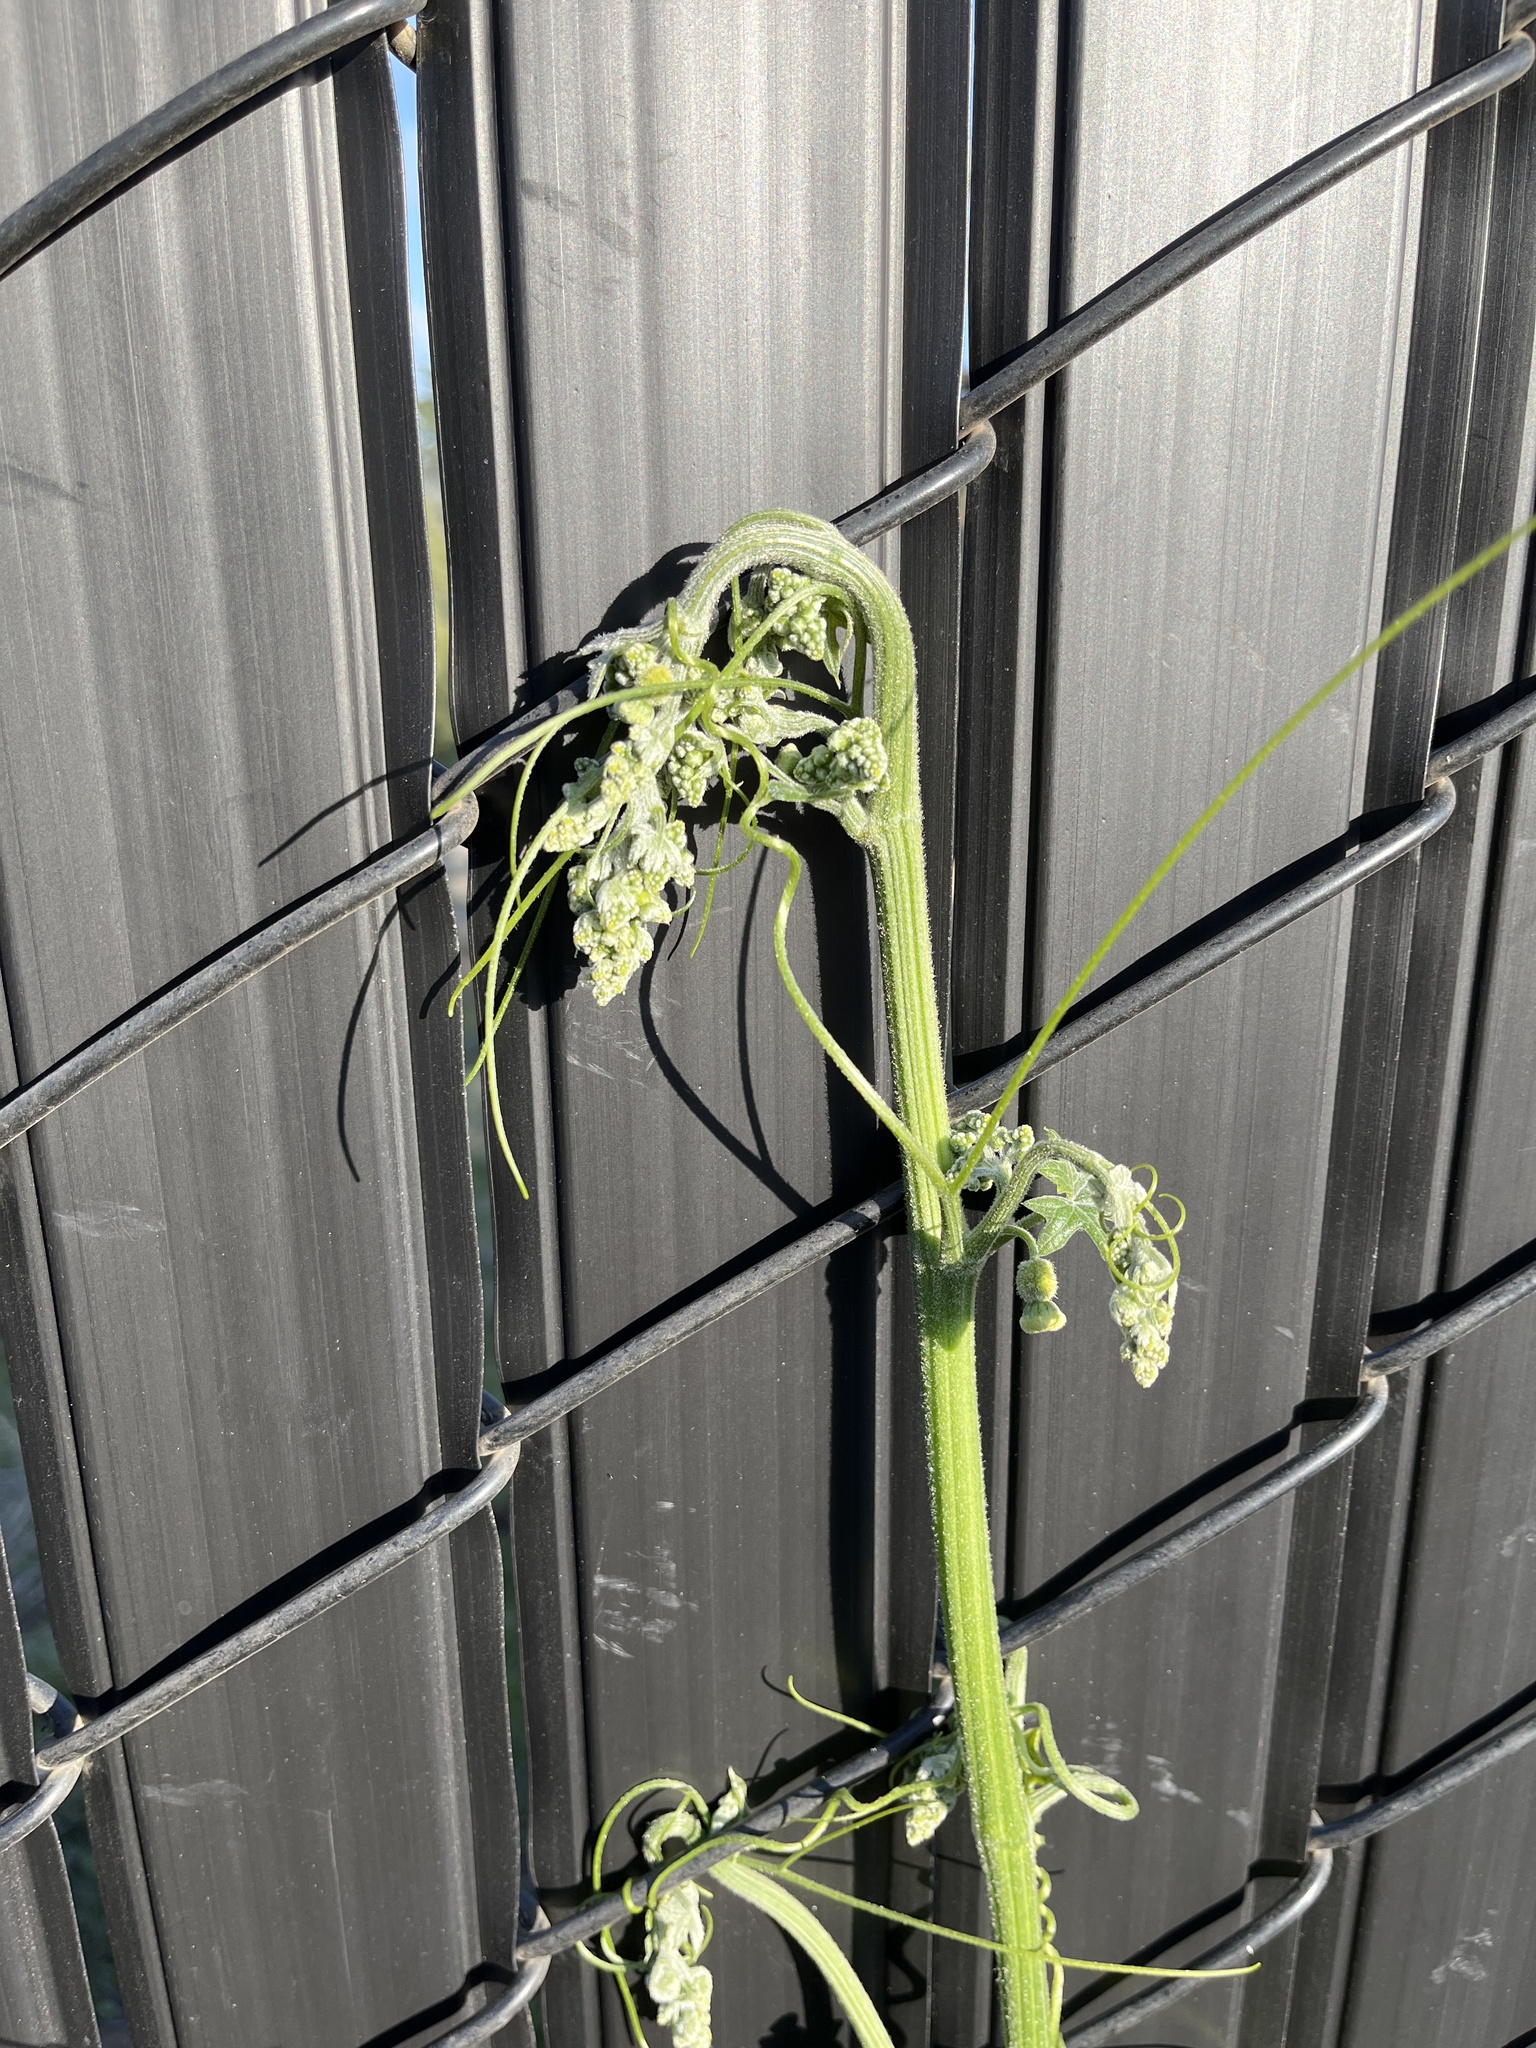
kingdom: Plantae
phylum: Tracheophyta
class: Magnoliopsida
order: Cucurbitales
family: Cucurbitaceae
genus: Marah
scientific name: Marah macrocarpa
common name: Cucamonga manroot
